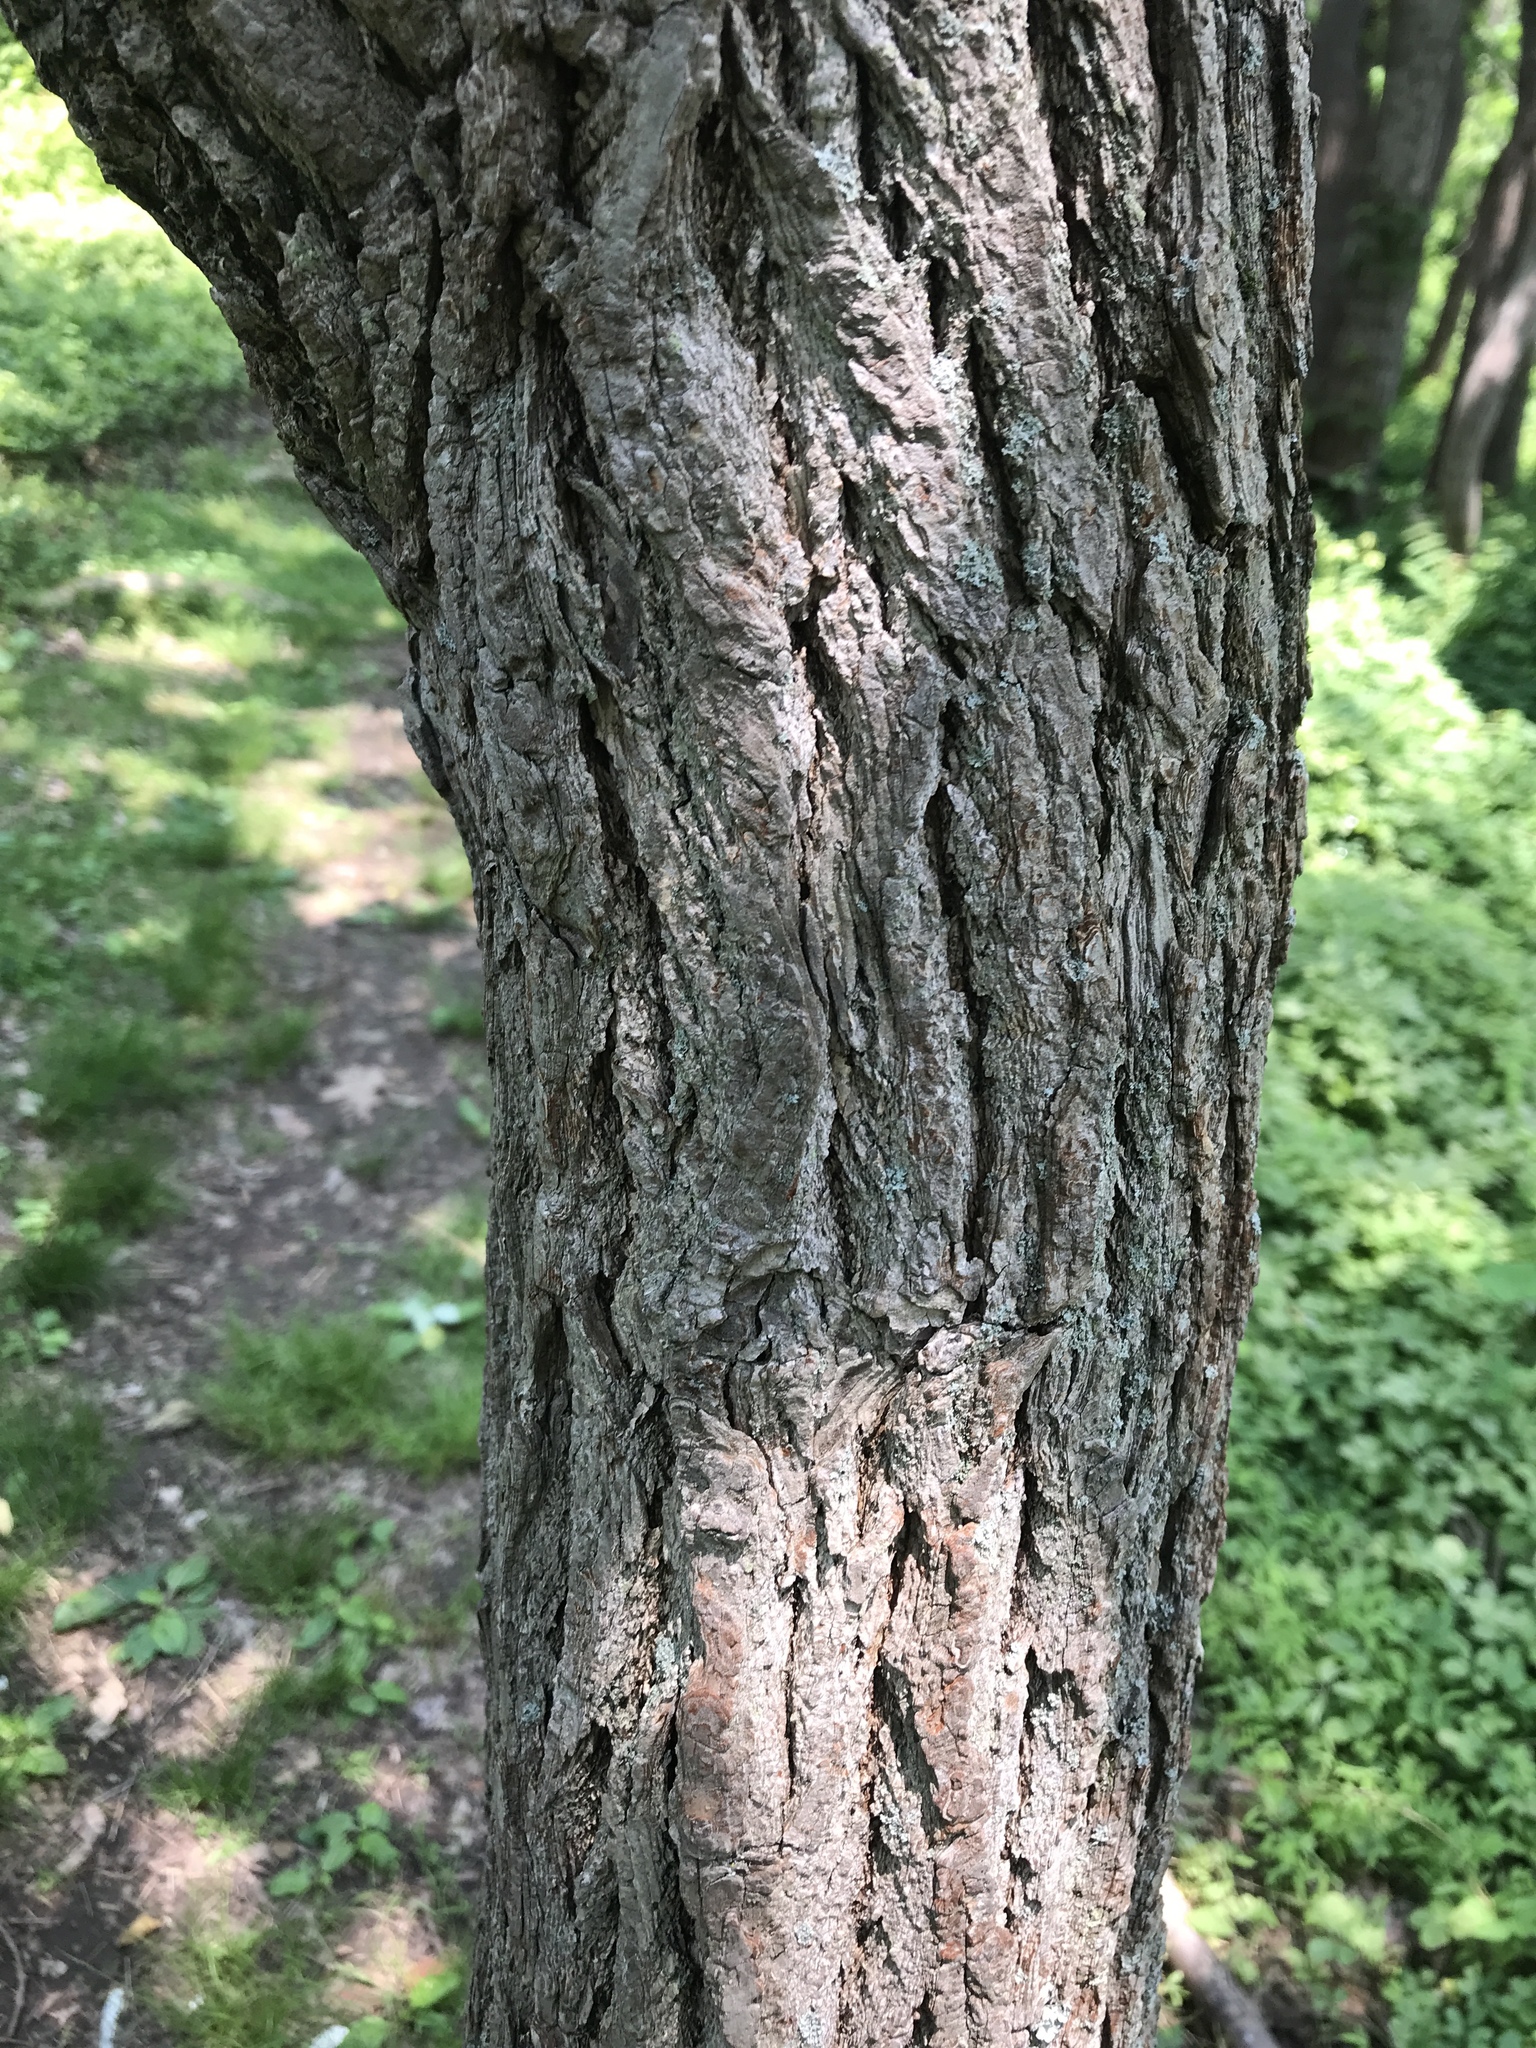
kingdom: Plantae
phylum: Tracheophyta
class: Magnoliopsida
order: Laurales
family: Lauraceae
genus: Sassafras
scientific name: Sassafras albidum
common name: Sassafras
